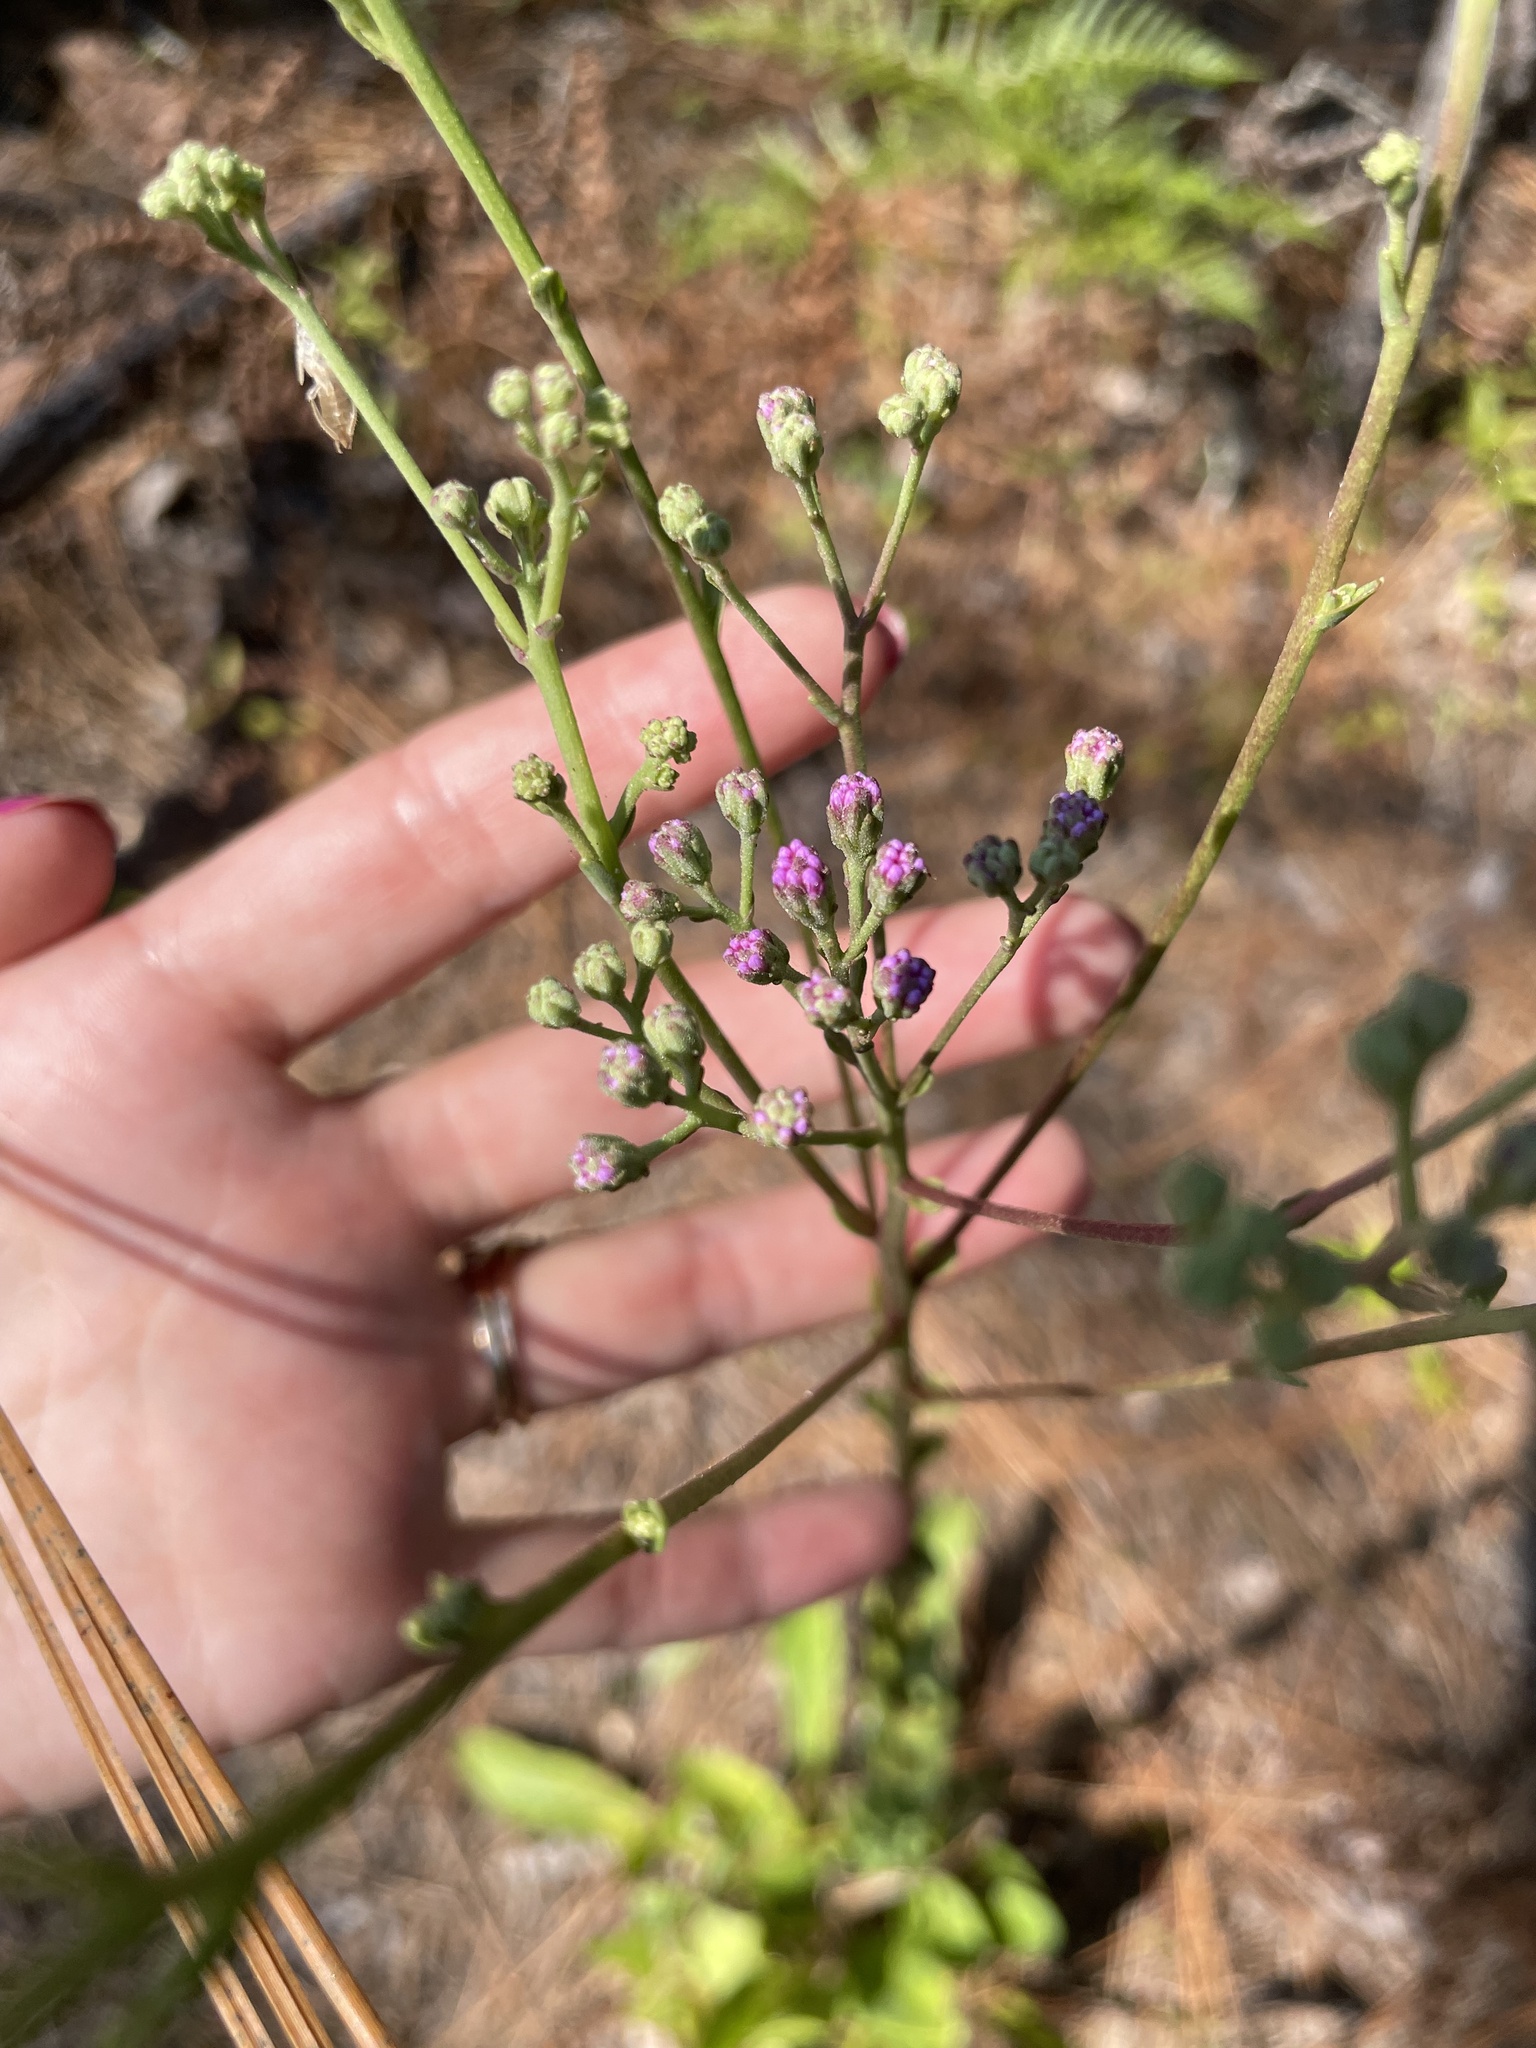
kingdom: Plantae
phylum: Tracheophyta
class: Magnoliopsida
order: Asterales
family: Asteraceae
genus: Carphephorus
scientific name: Carphephorus odoratissimus
